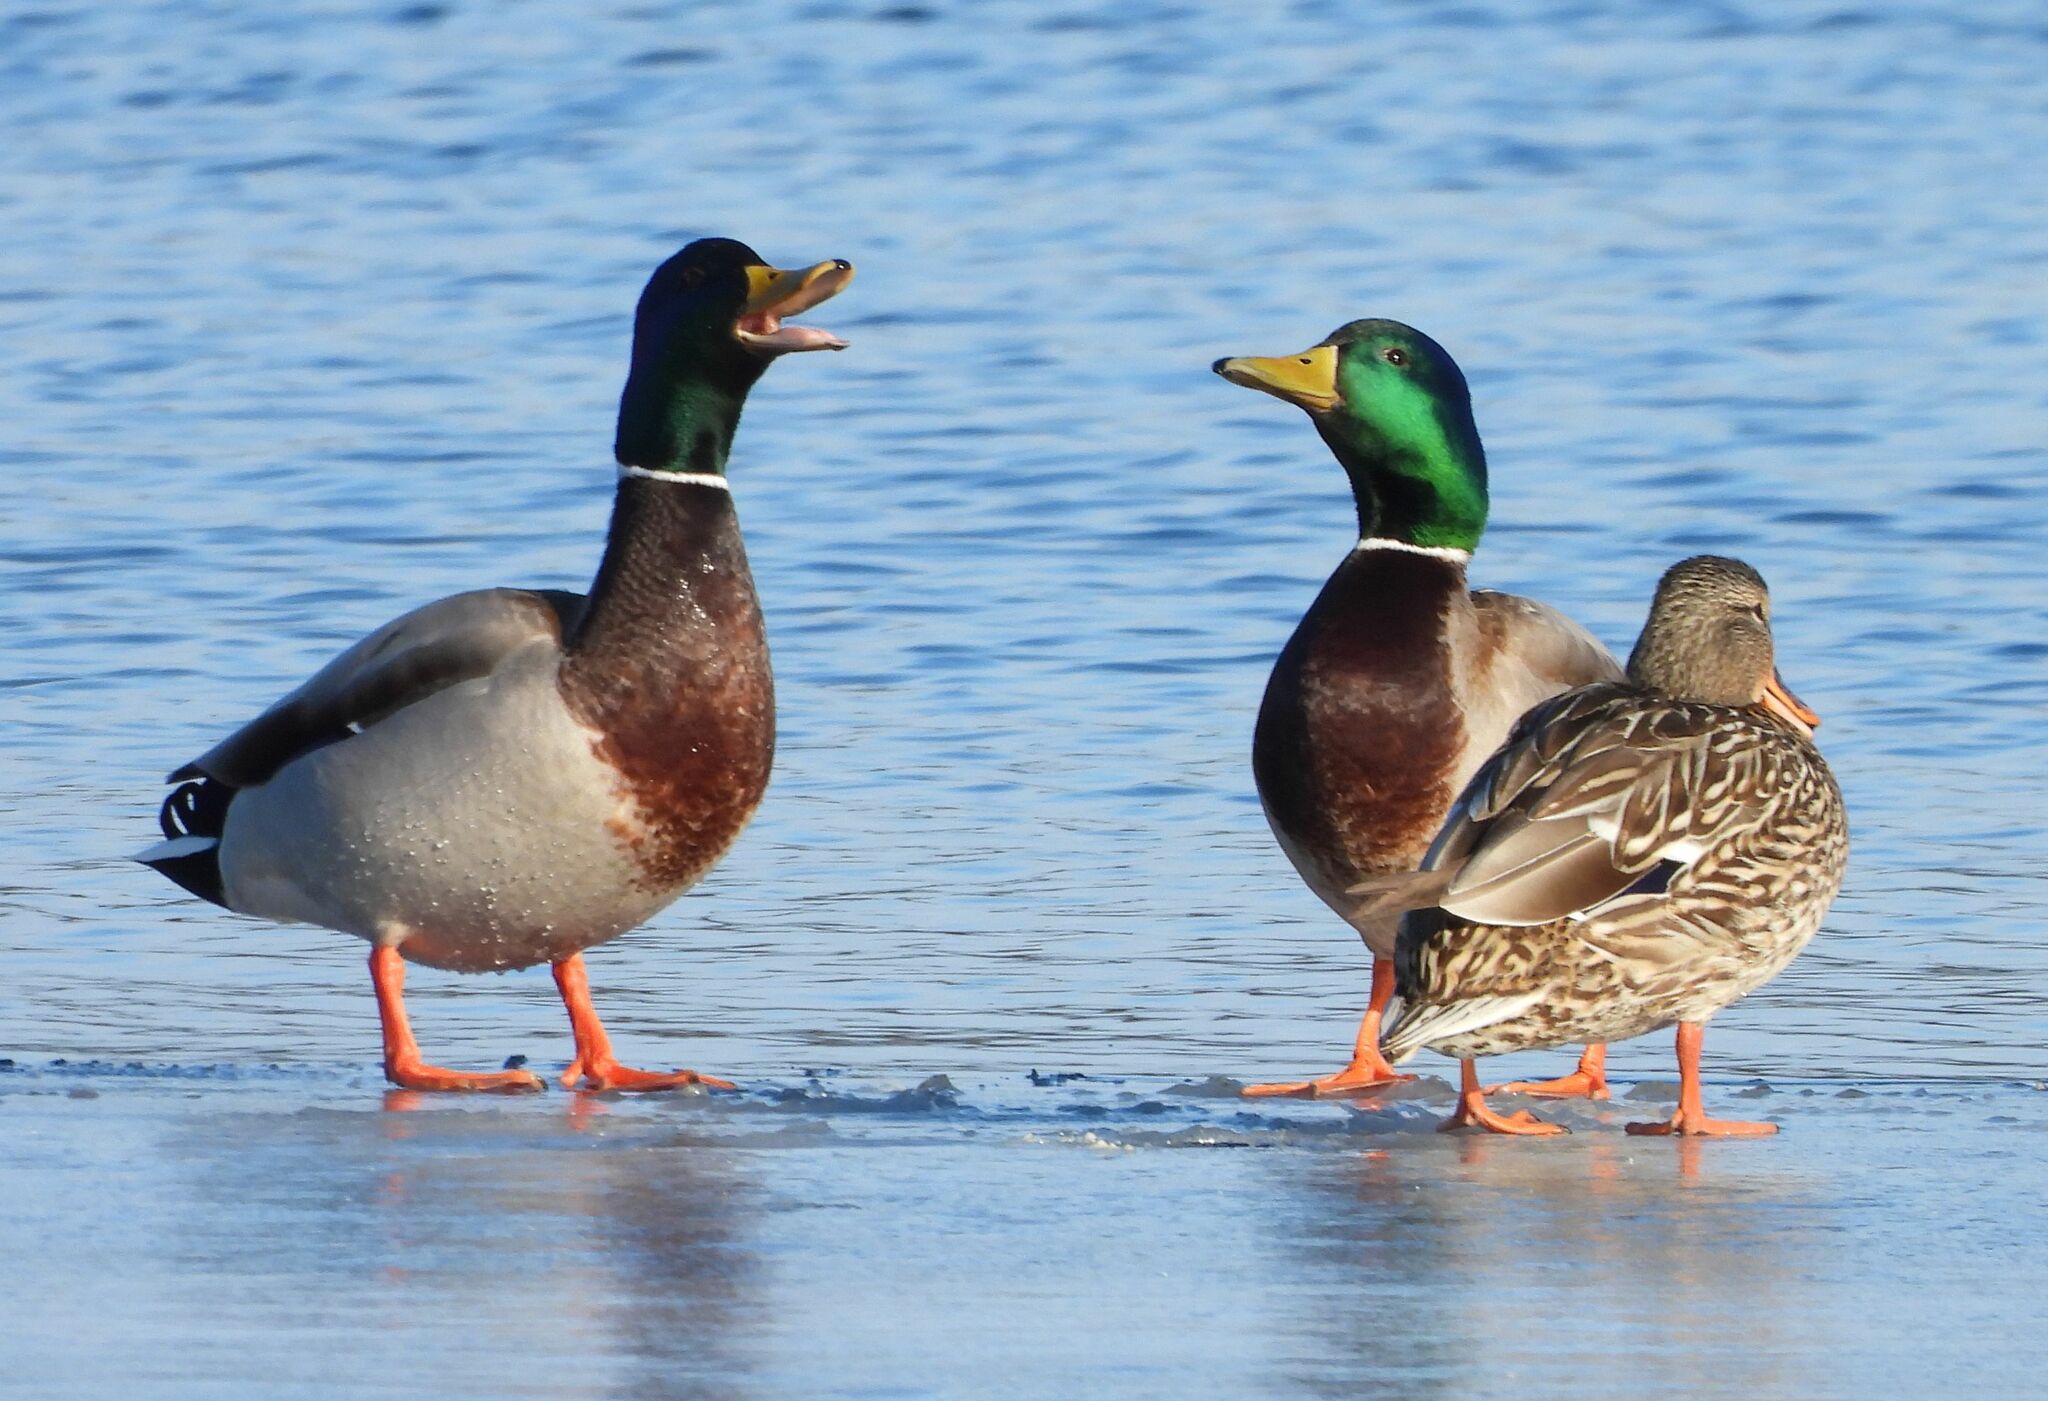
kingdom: Animalia
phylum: Chordata
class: Aves
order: Anseriformes
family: Anatidae
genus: Anas
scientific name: Anas platyrhynchos
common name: Mallard
